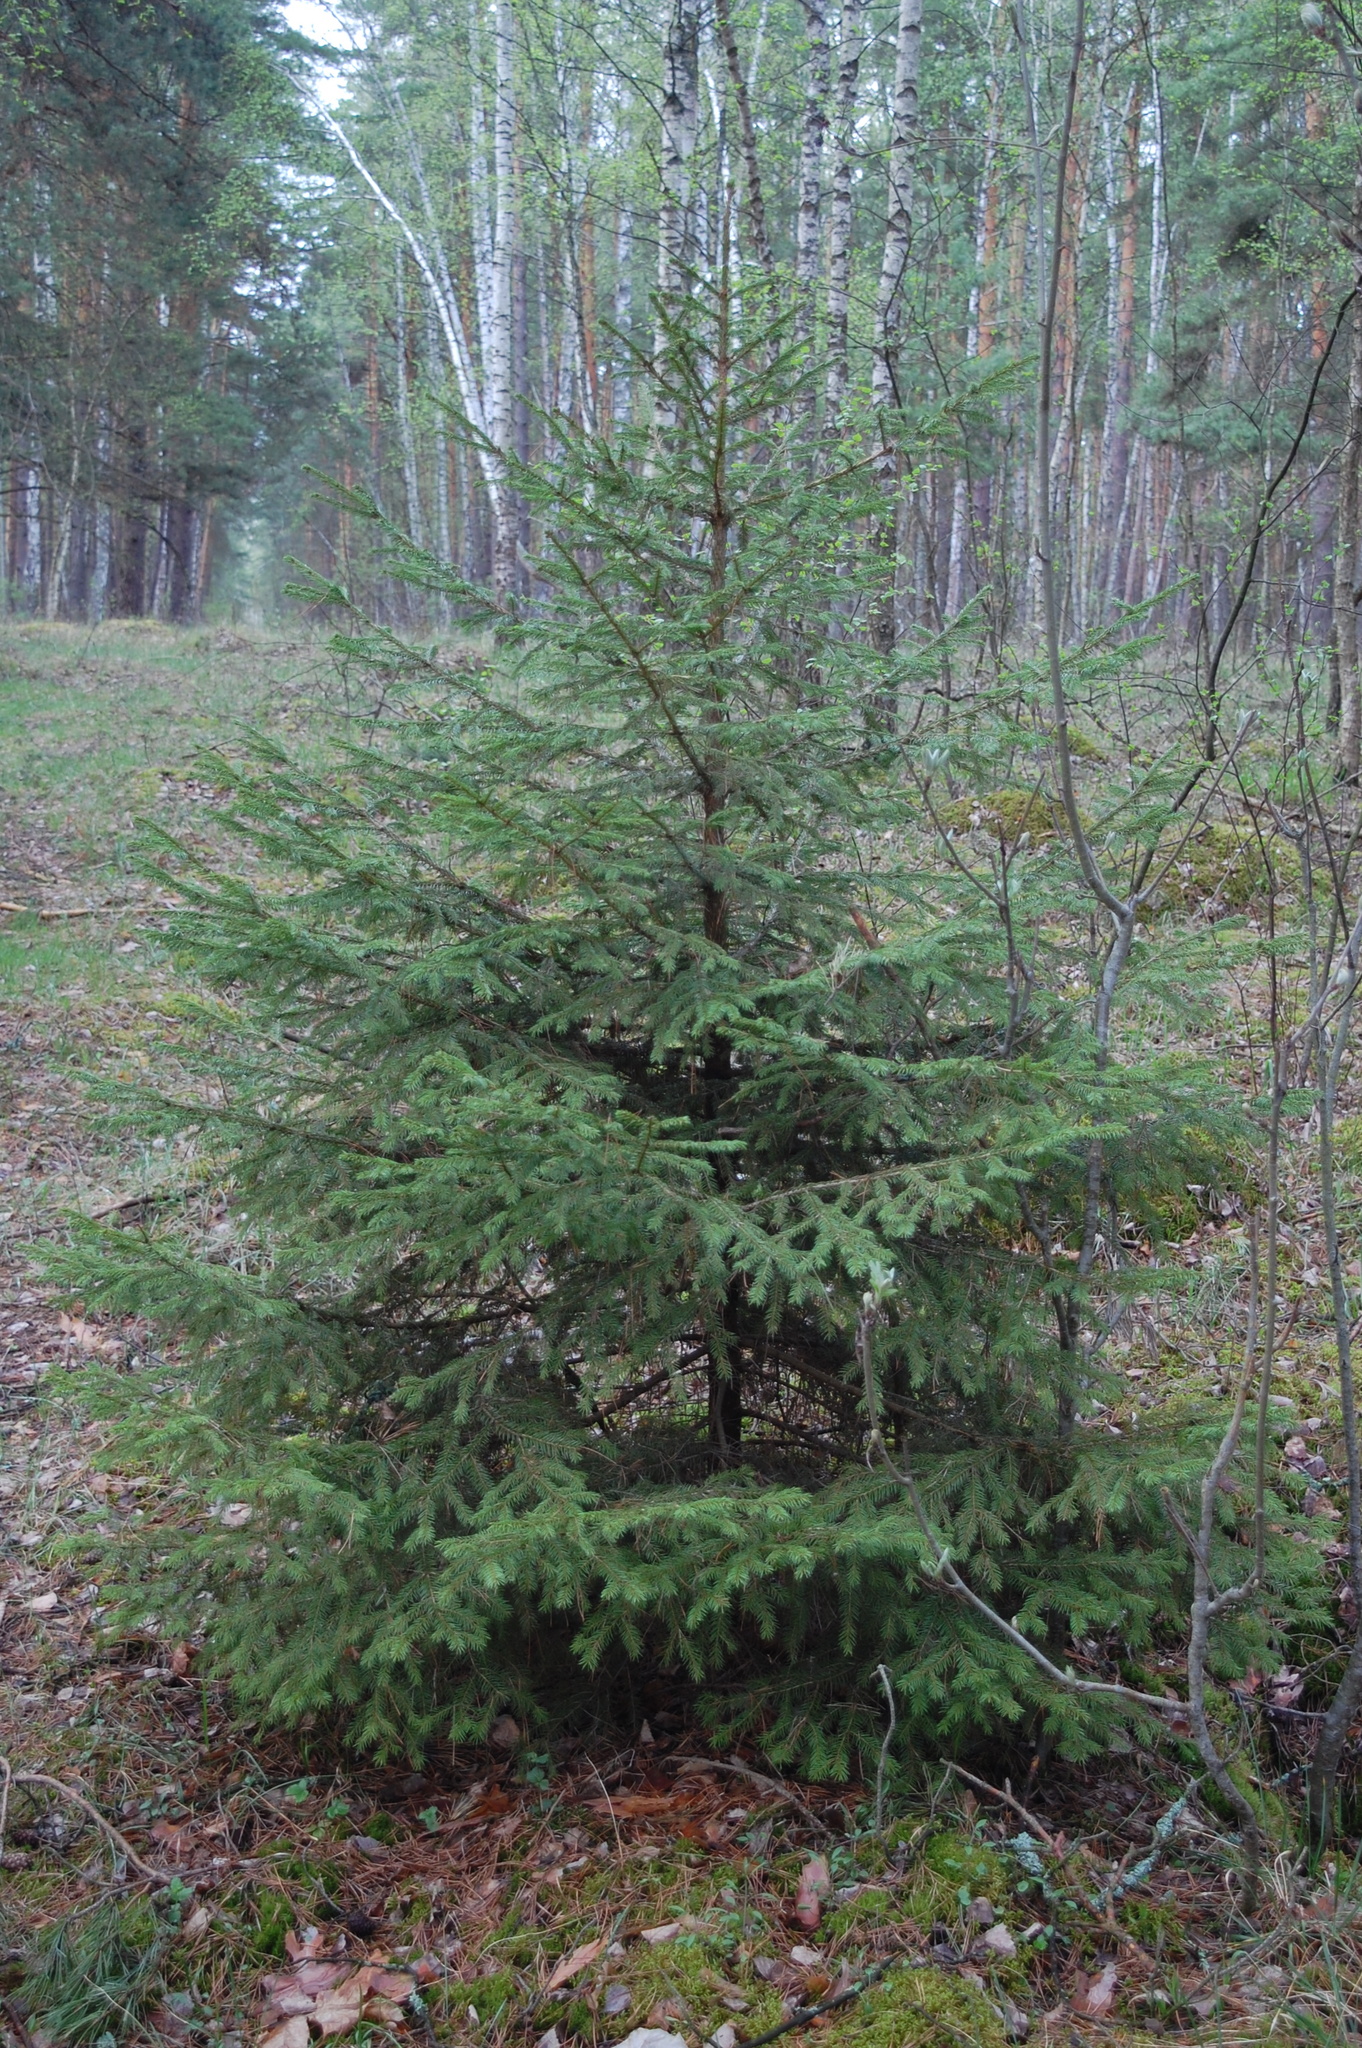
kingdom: Plantae
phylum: Tracheophyta
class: Pinopsida
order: Pinales
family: Pinaceae
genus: Picea
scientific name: Picea abies
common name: Norway spruce
